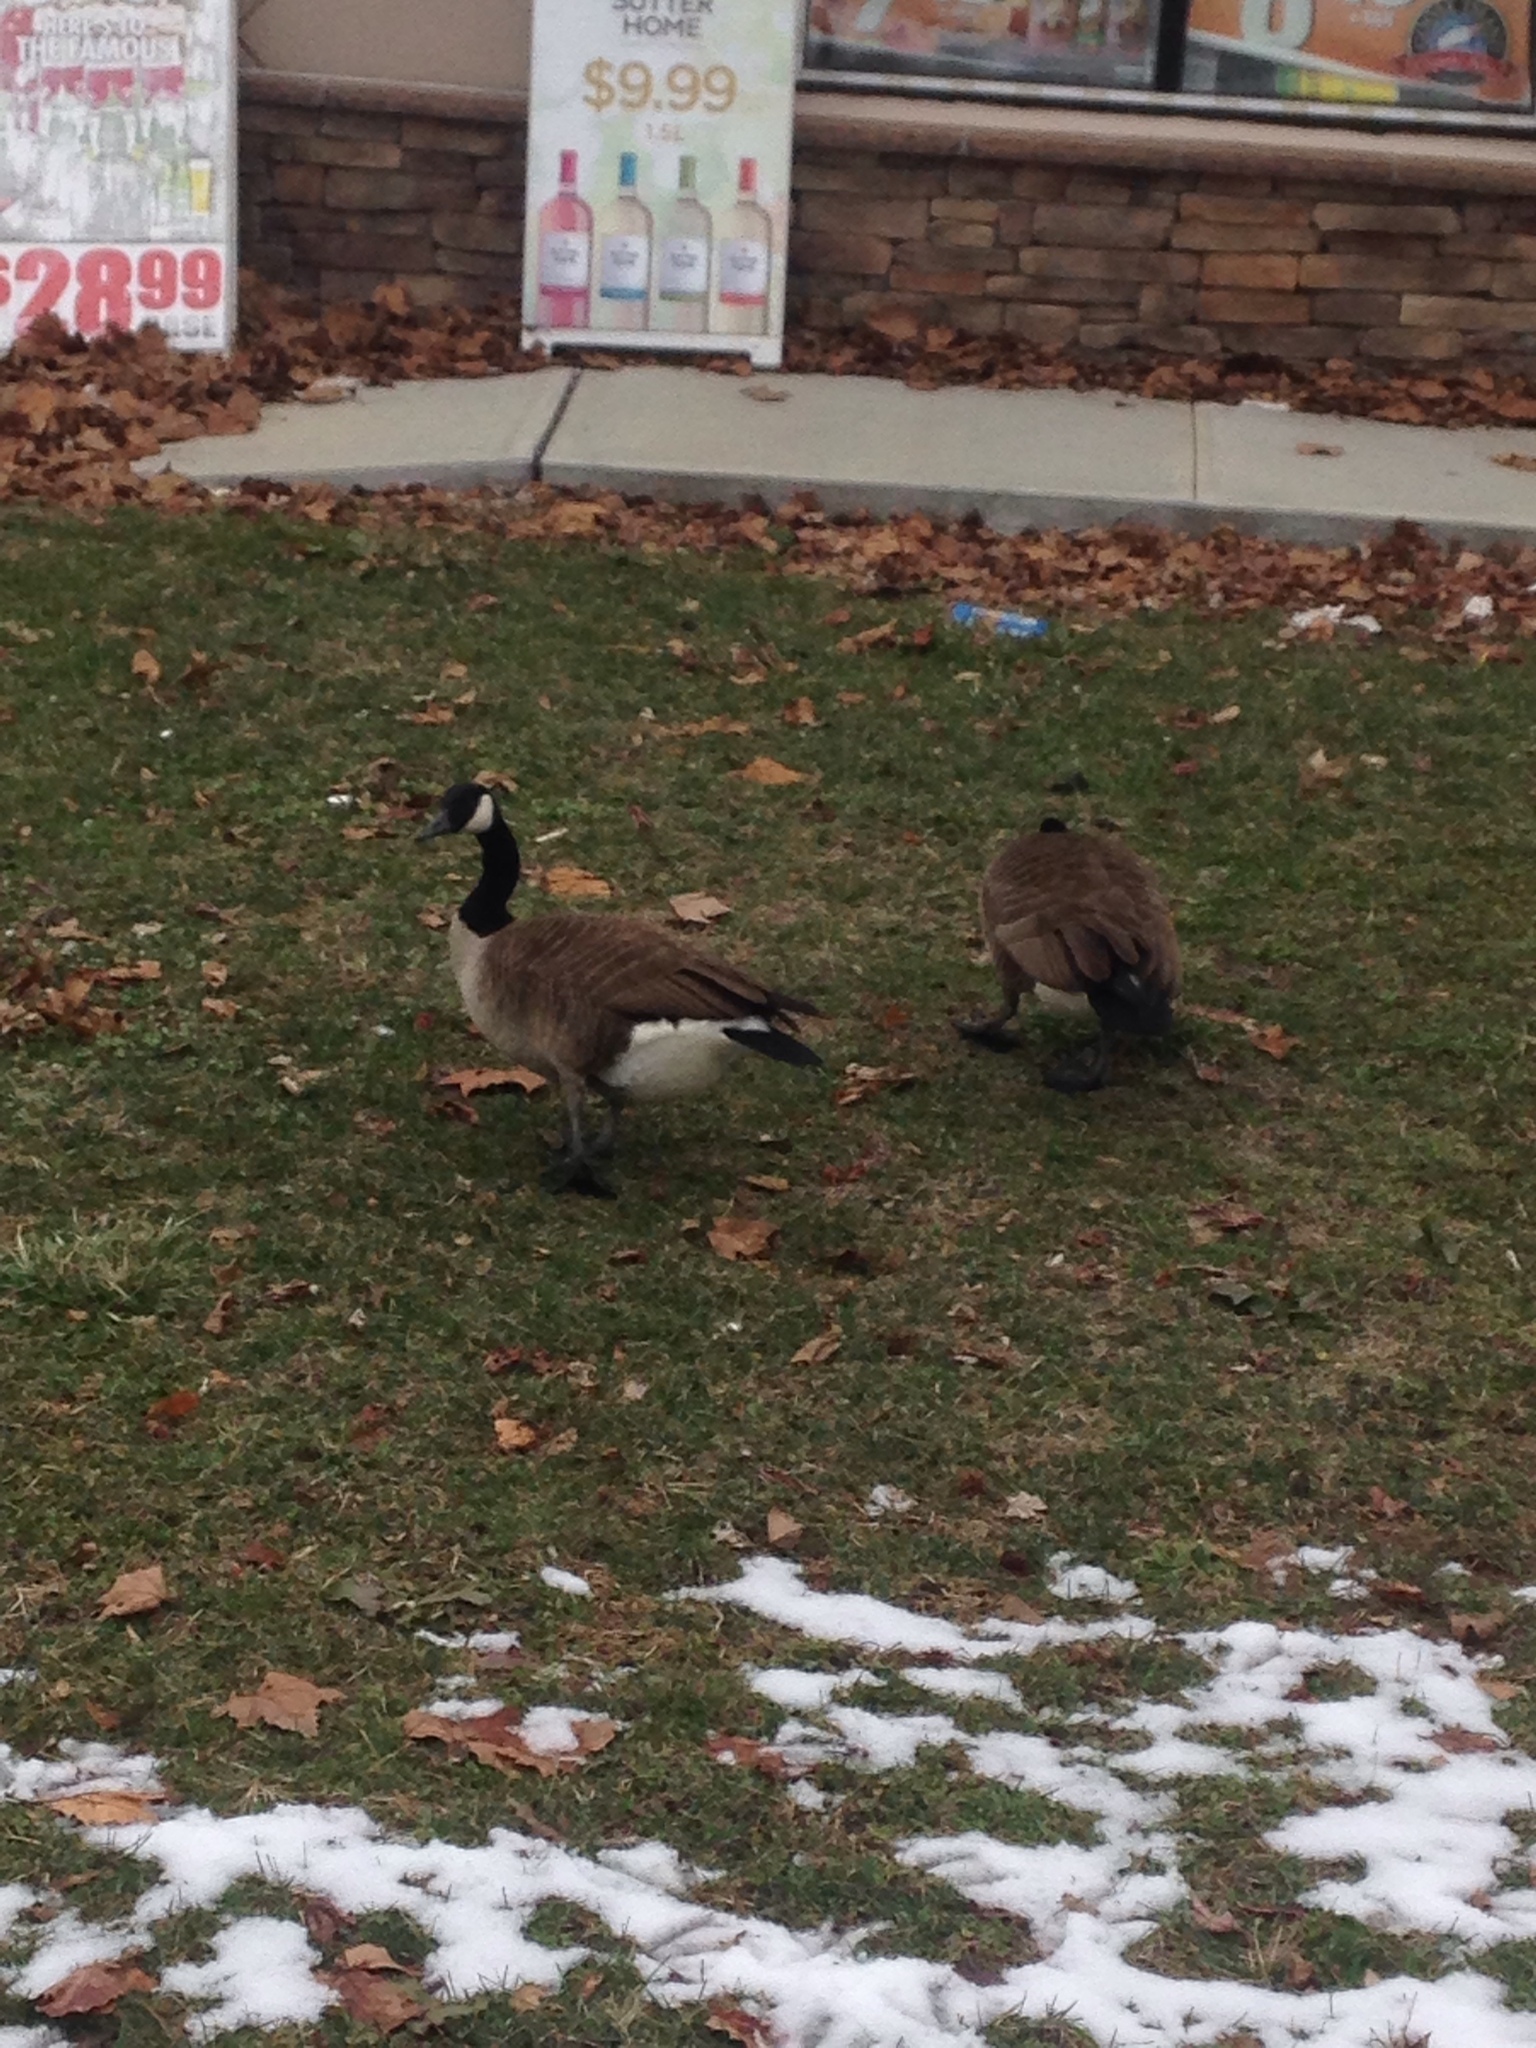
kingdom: Animalia
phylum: Chordata
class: Aves
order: Anseriformes
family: Anatidae
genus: Branta
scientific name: Branta canadensis
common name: Canada goose
